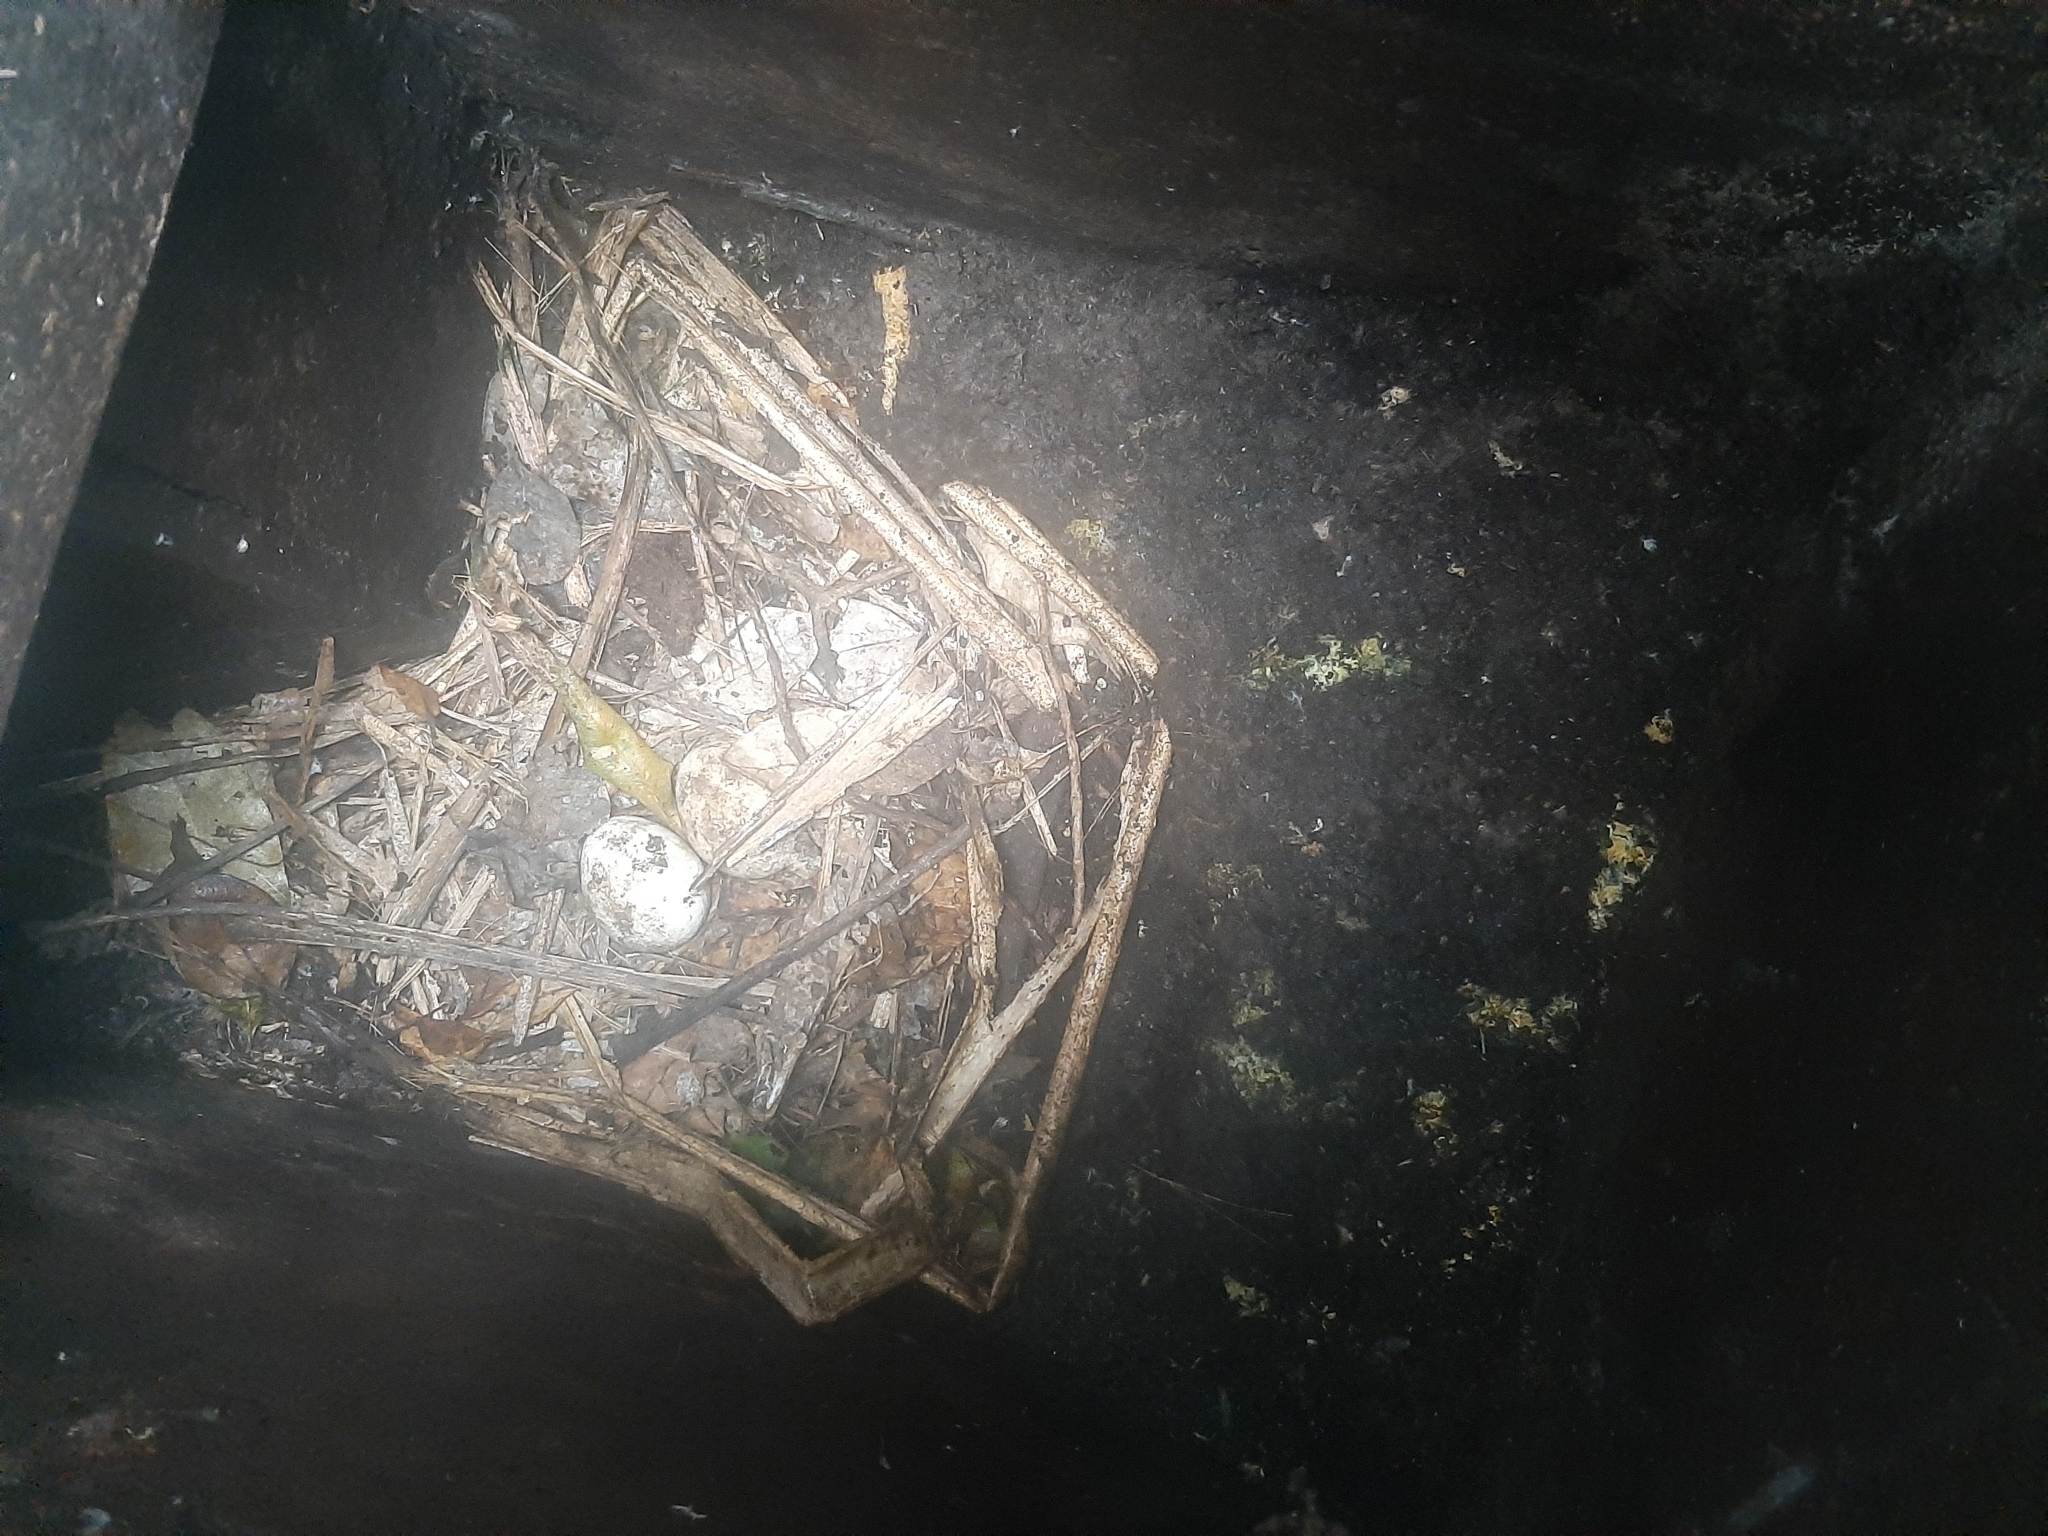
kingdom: Animalia
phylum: Chordata
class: Aves
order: Sphenisciformes
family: Spheniscidae
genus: Eudyptula
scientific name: Eudyptula minor
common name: Little penguin
